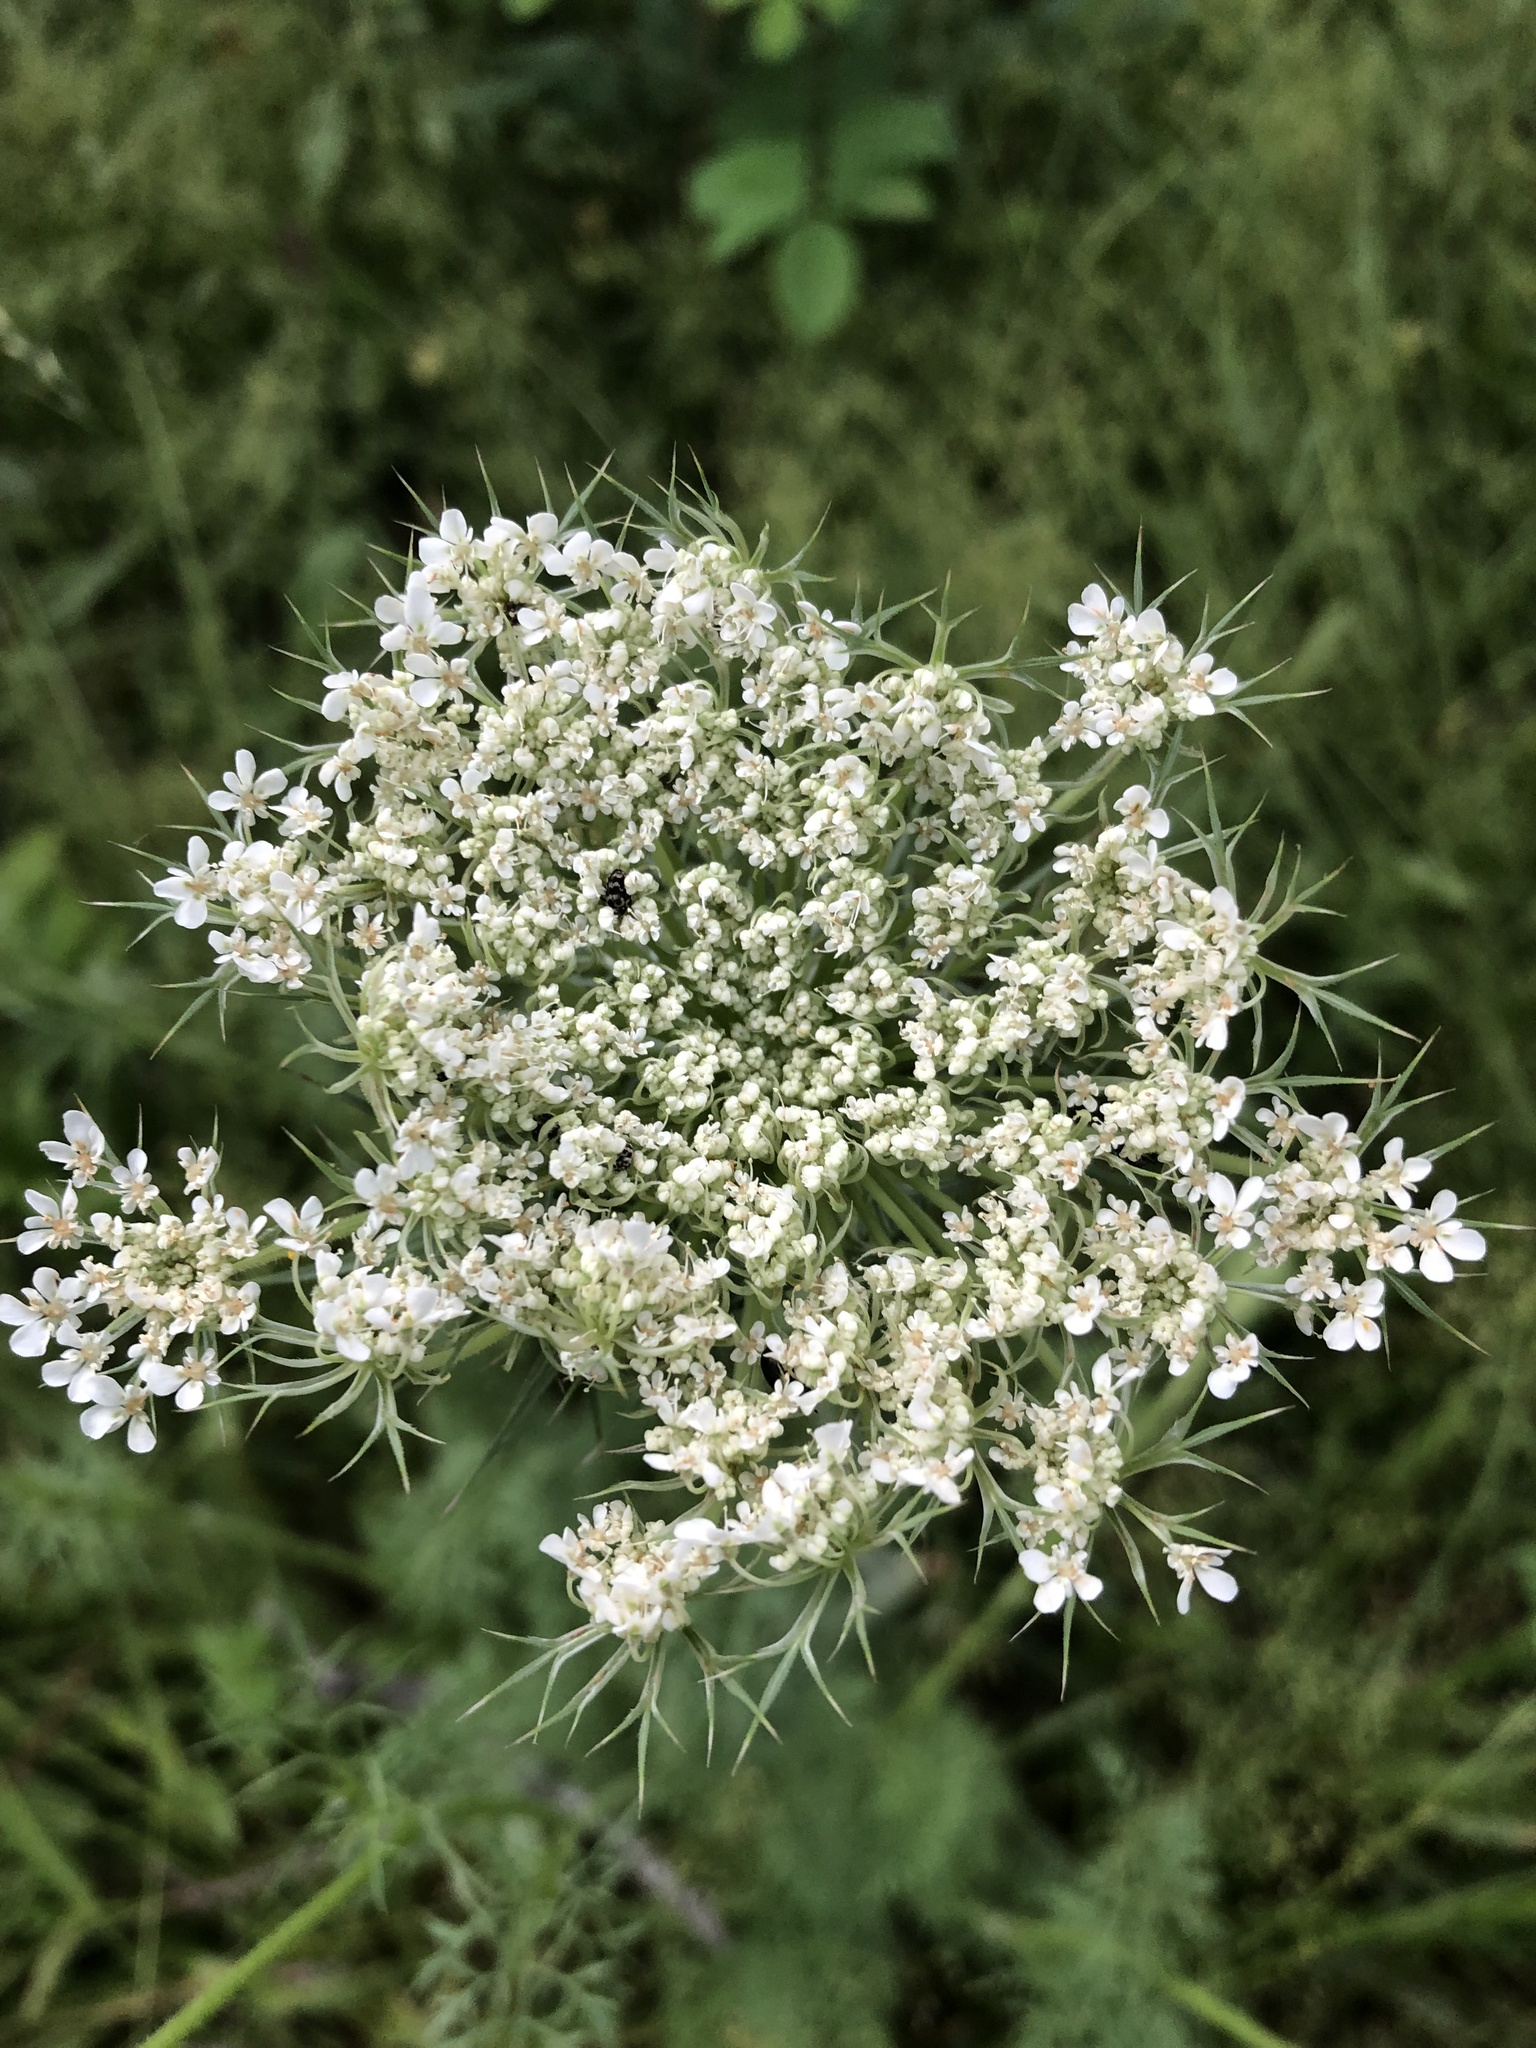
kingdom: Plantae
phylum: Tracheophyta
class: Magnoliopsida
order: Apiales
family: Apiaceae
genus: Daucus
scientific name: Daucus carota
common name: Wild carrot
